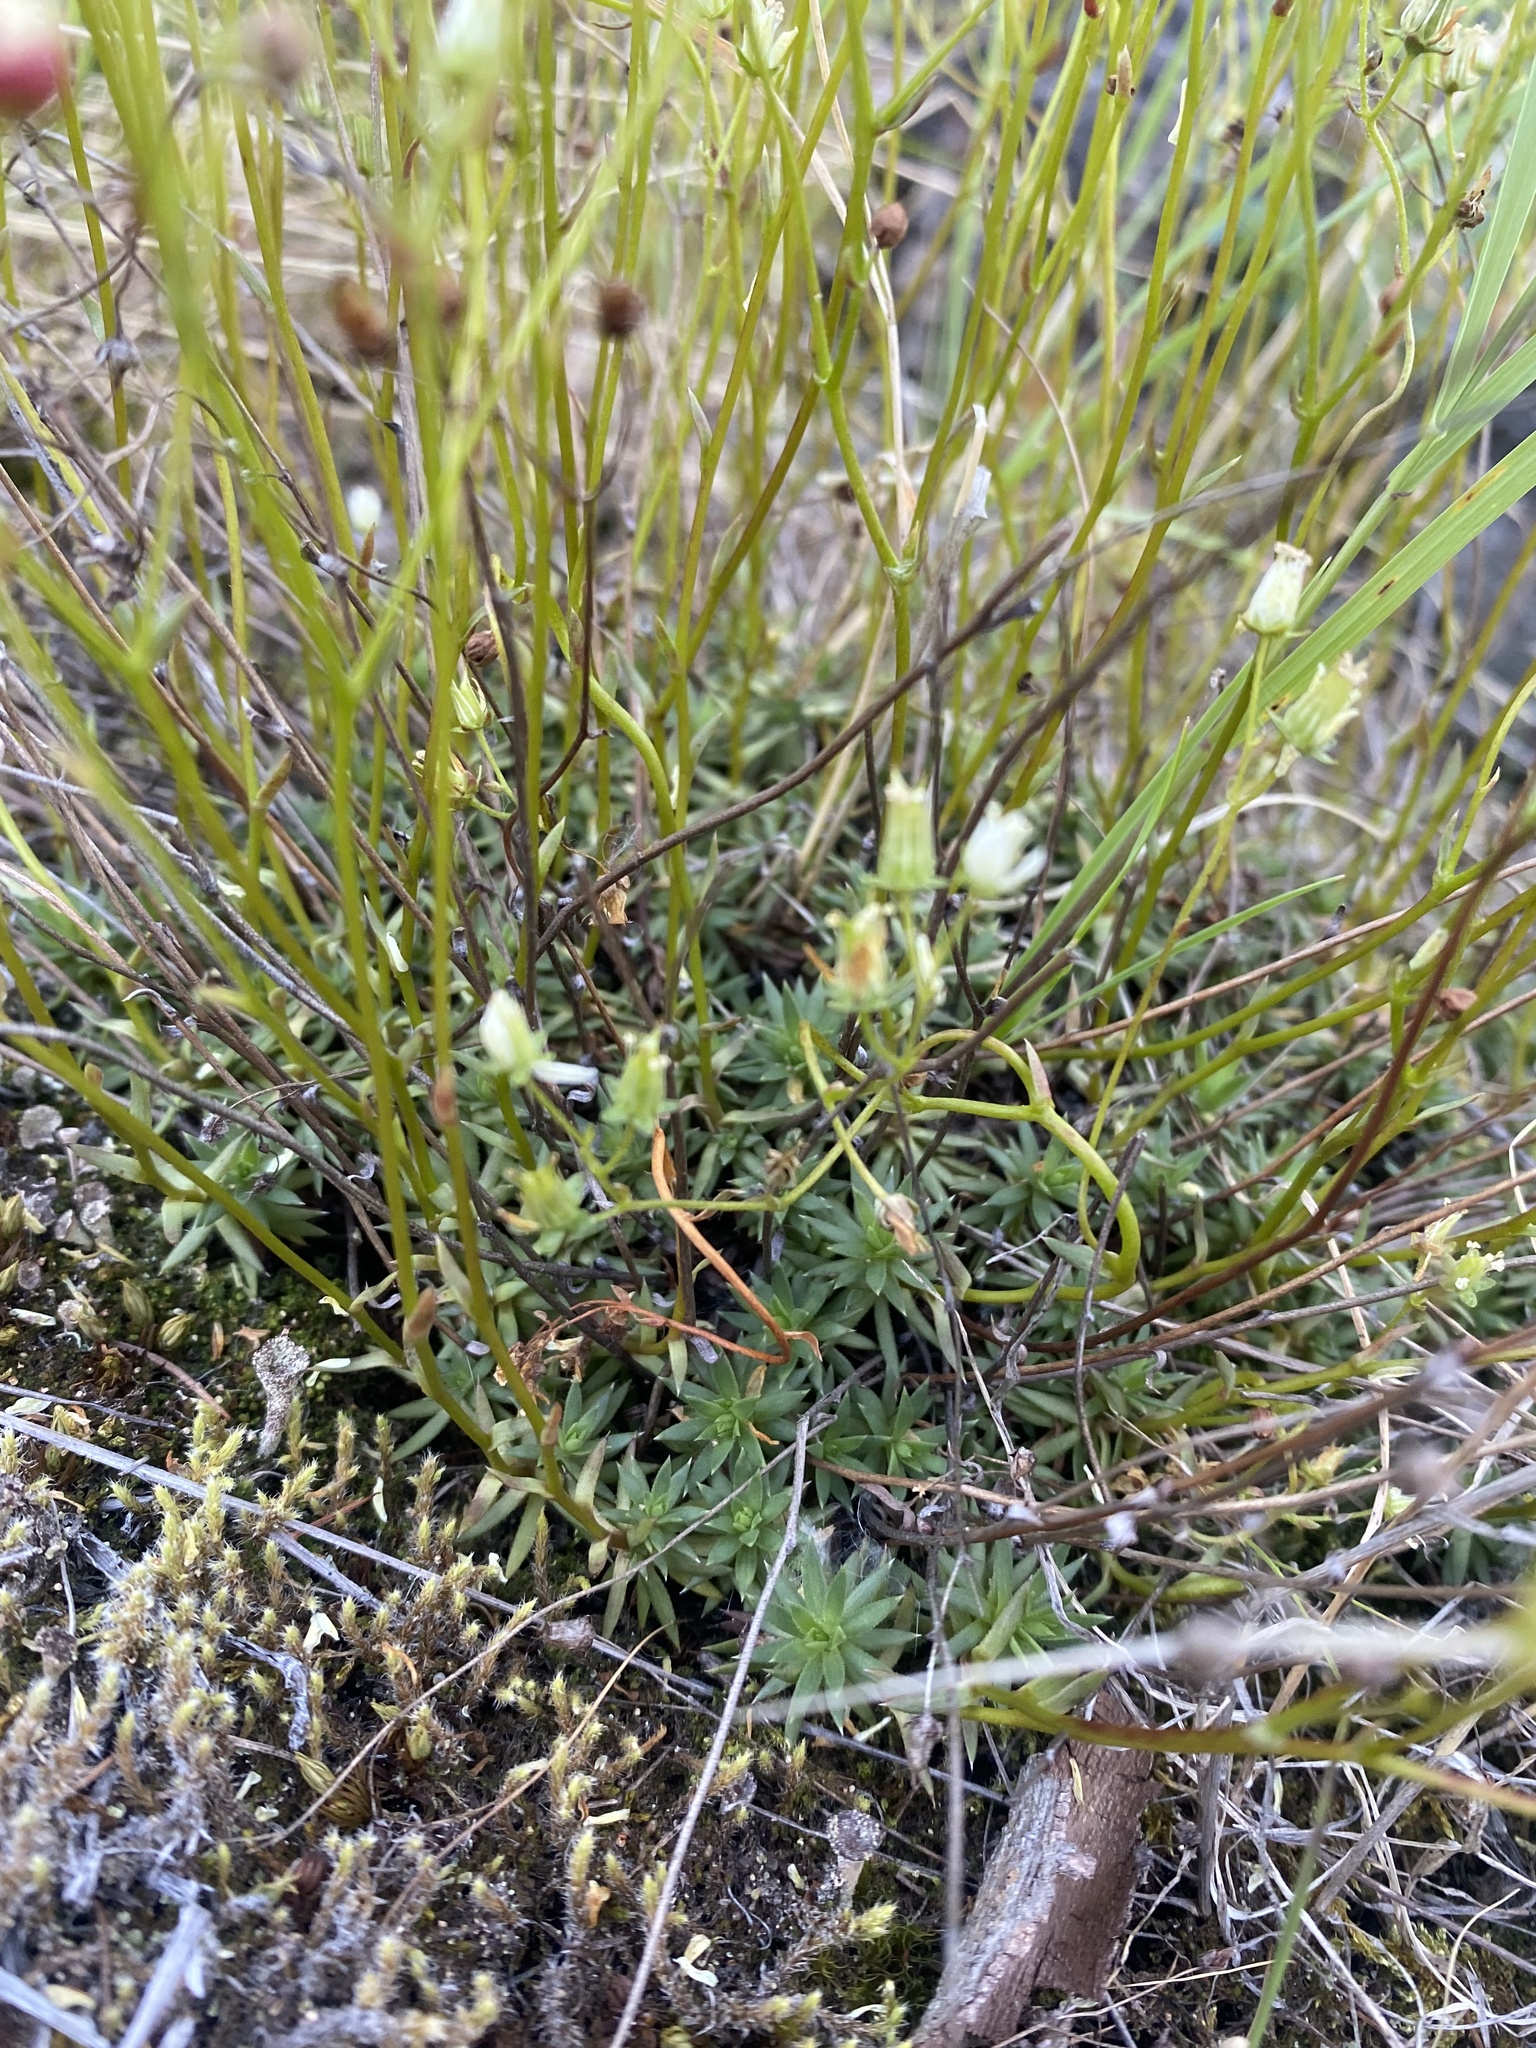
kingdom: Plantae
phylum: Tracheophyta
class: Magnoliopsida
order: Saxifragales
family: Saxifragaceae
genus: Saxifraga
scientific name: Saxifraga
